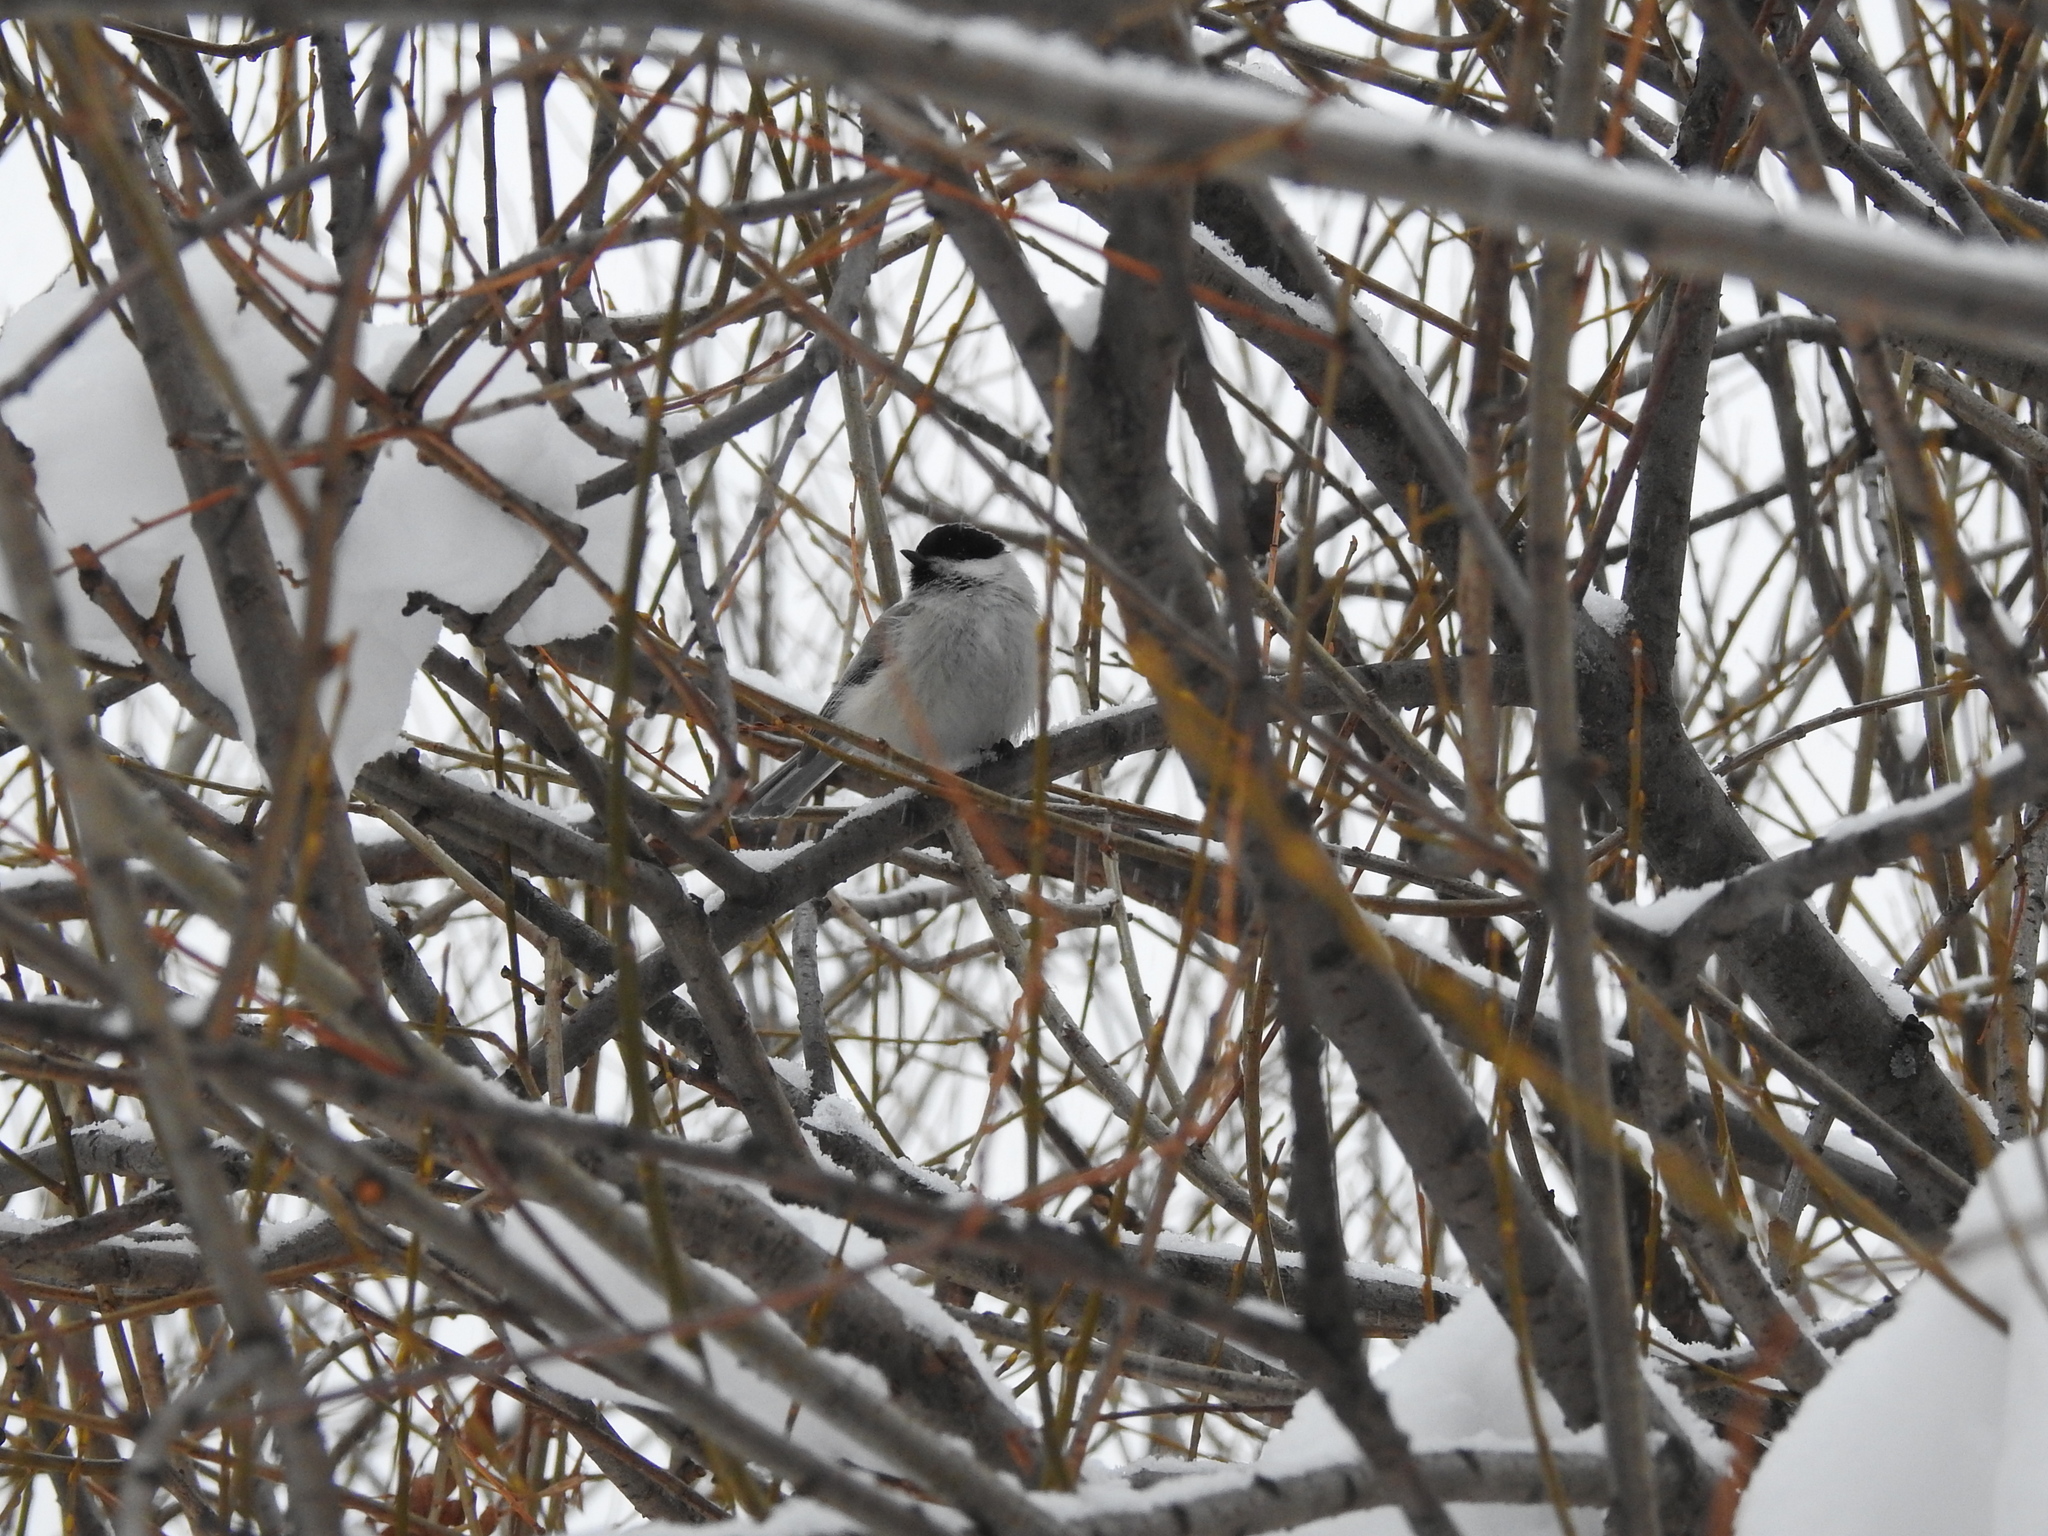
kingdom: Animalia
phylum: Chordata
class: Aves
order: Passeriformes
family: Paridae
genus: Poecile
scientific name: Poecile montanus
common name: Willow tit
